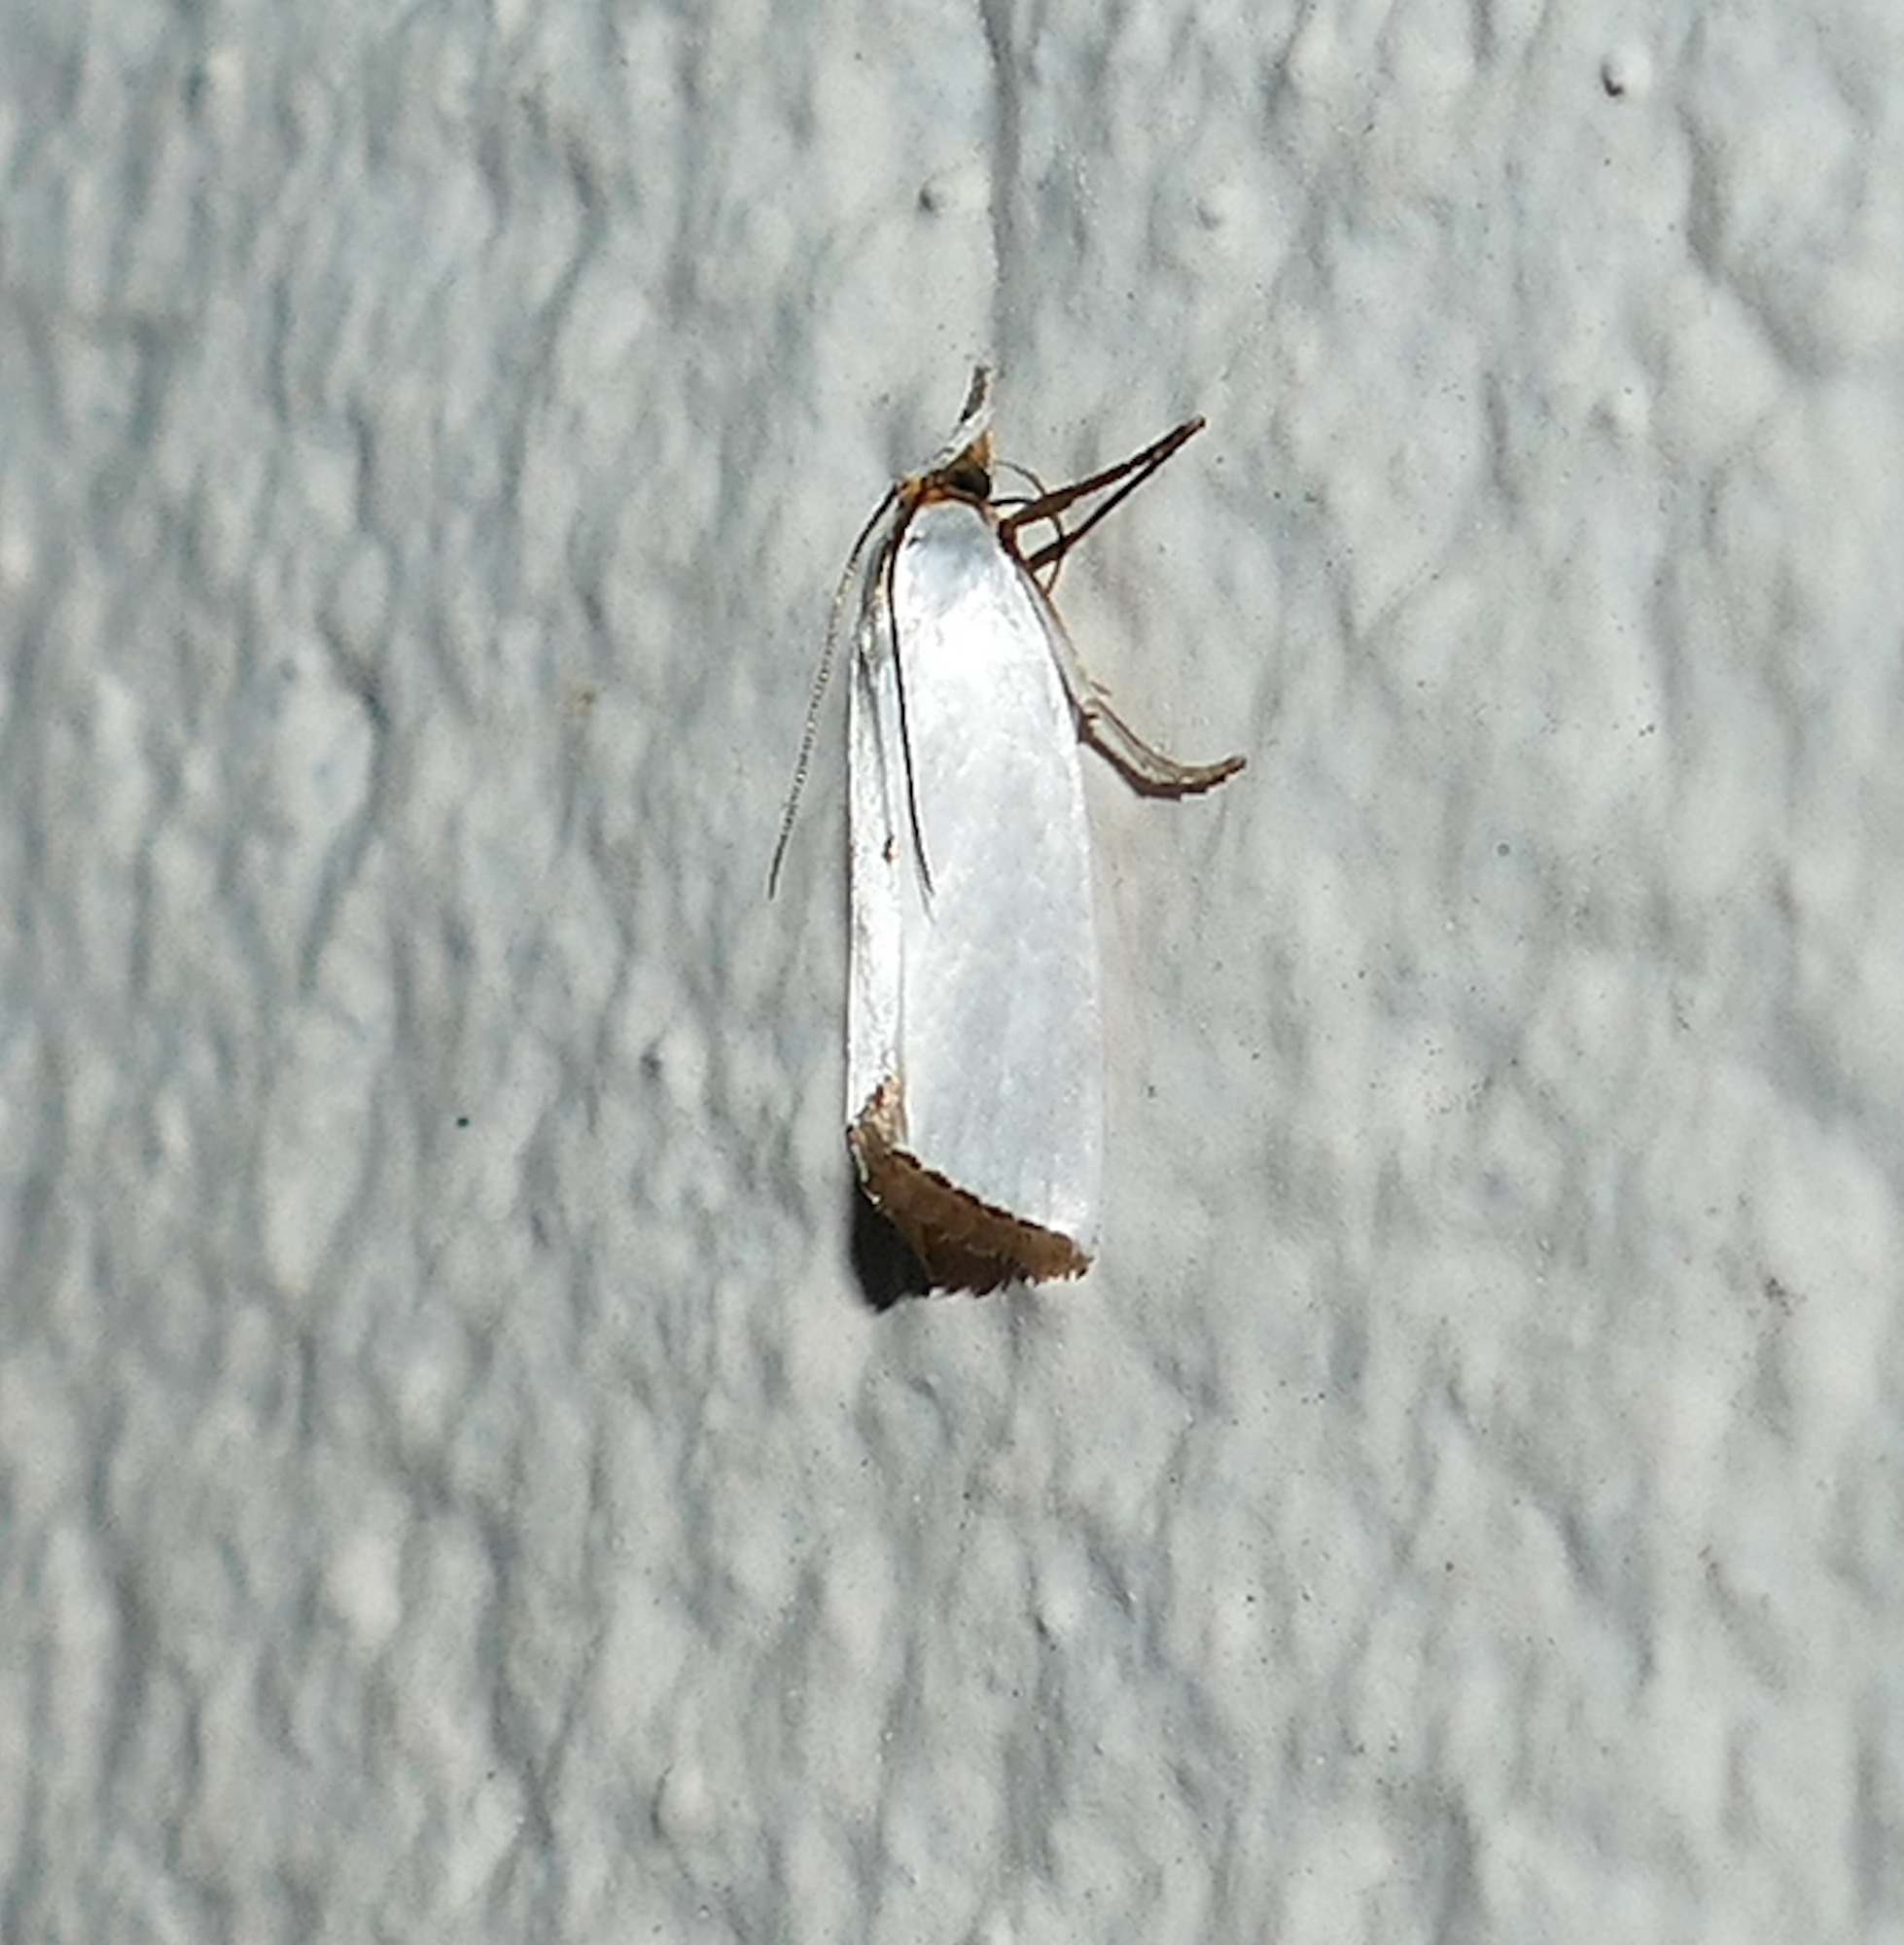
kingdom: Animalia
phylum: Arthropoda
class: Insecta
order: Lepidoptera
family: Crambidae
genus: Argyria
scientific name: Argyria nivalis
